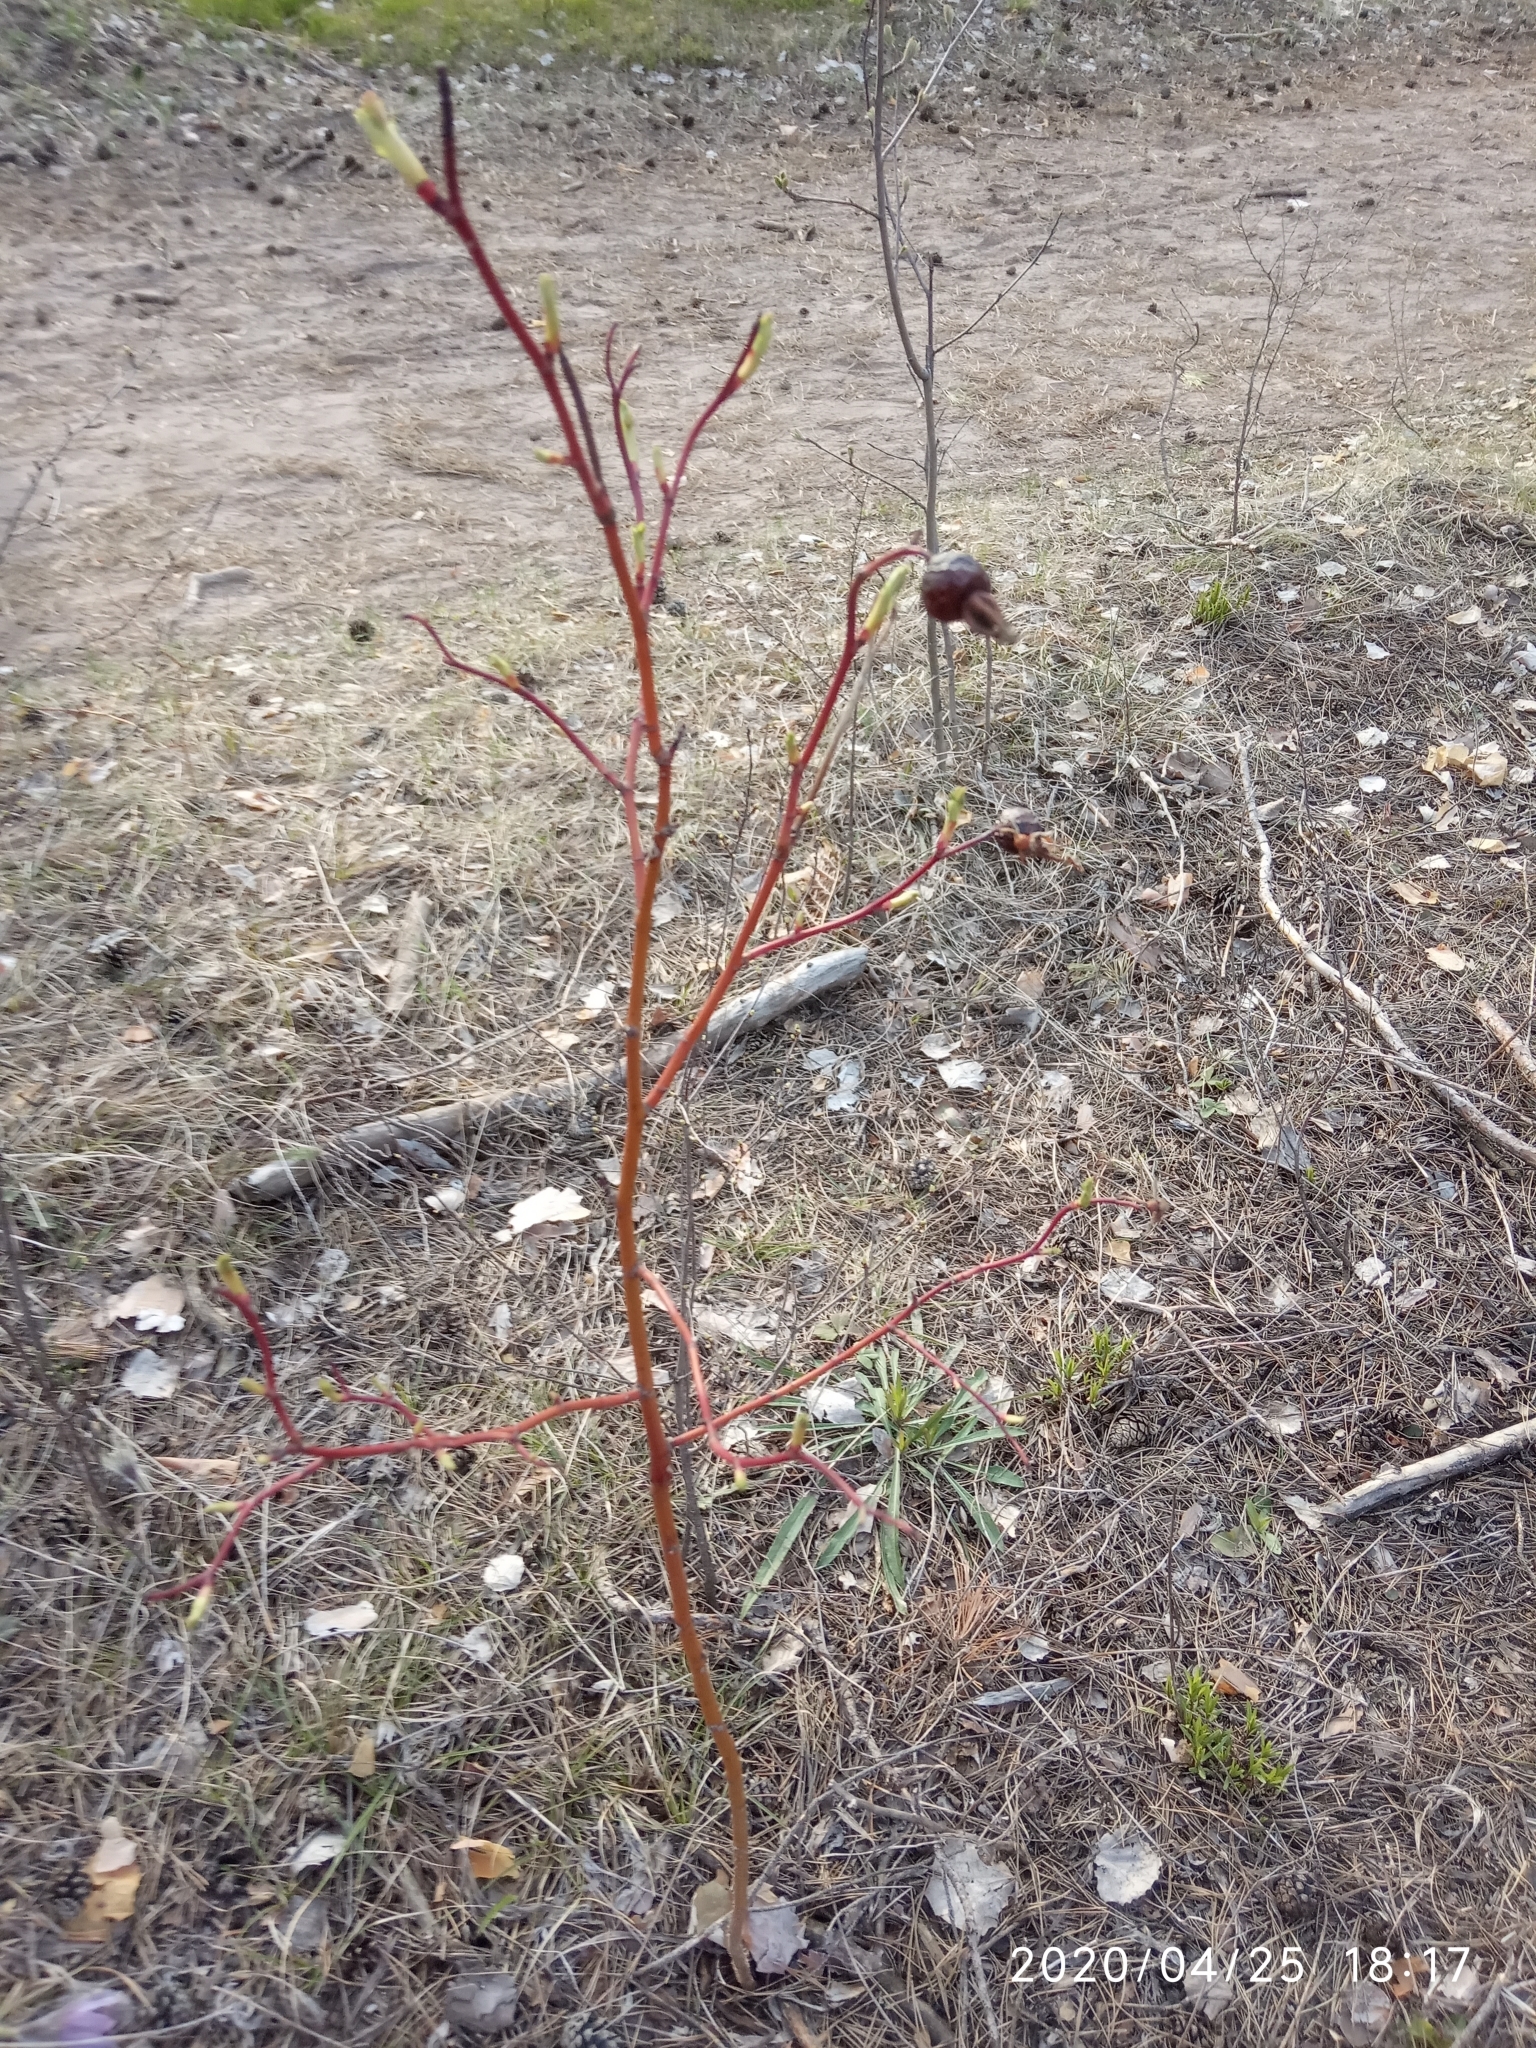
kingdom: Plantae
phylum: Tracheophyta
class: Magnoliopsida
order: Rosales
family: Rosaceae
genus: Rosa
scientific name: Rosa majalis
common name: Cinnamon rose
